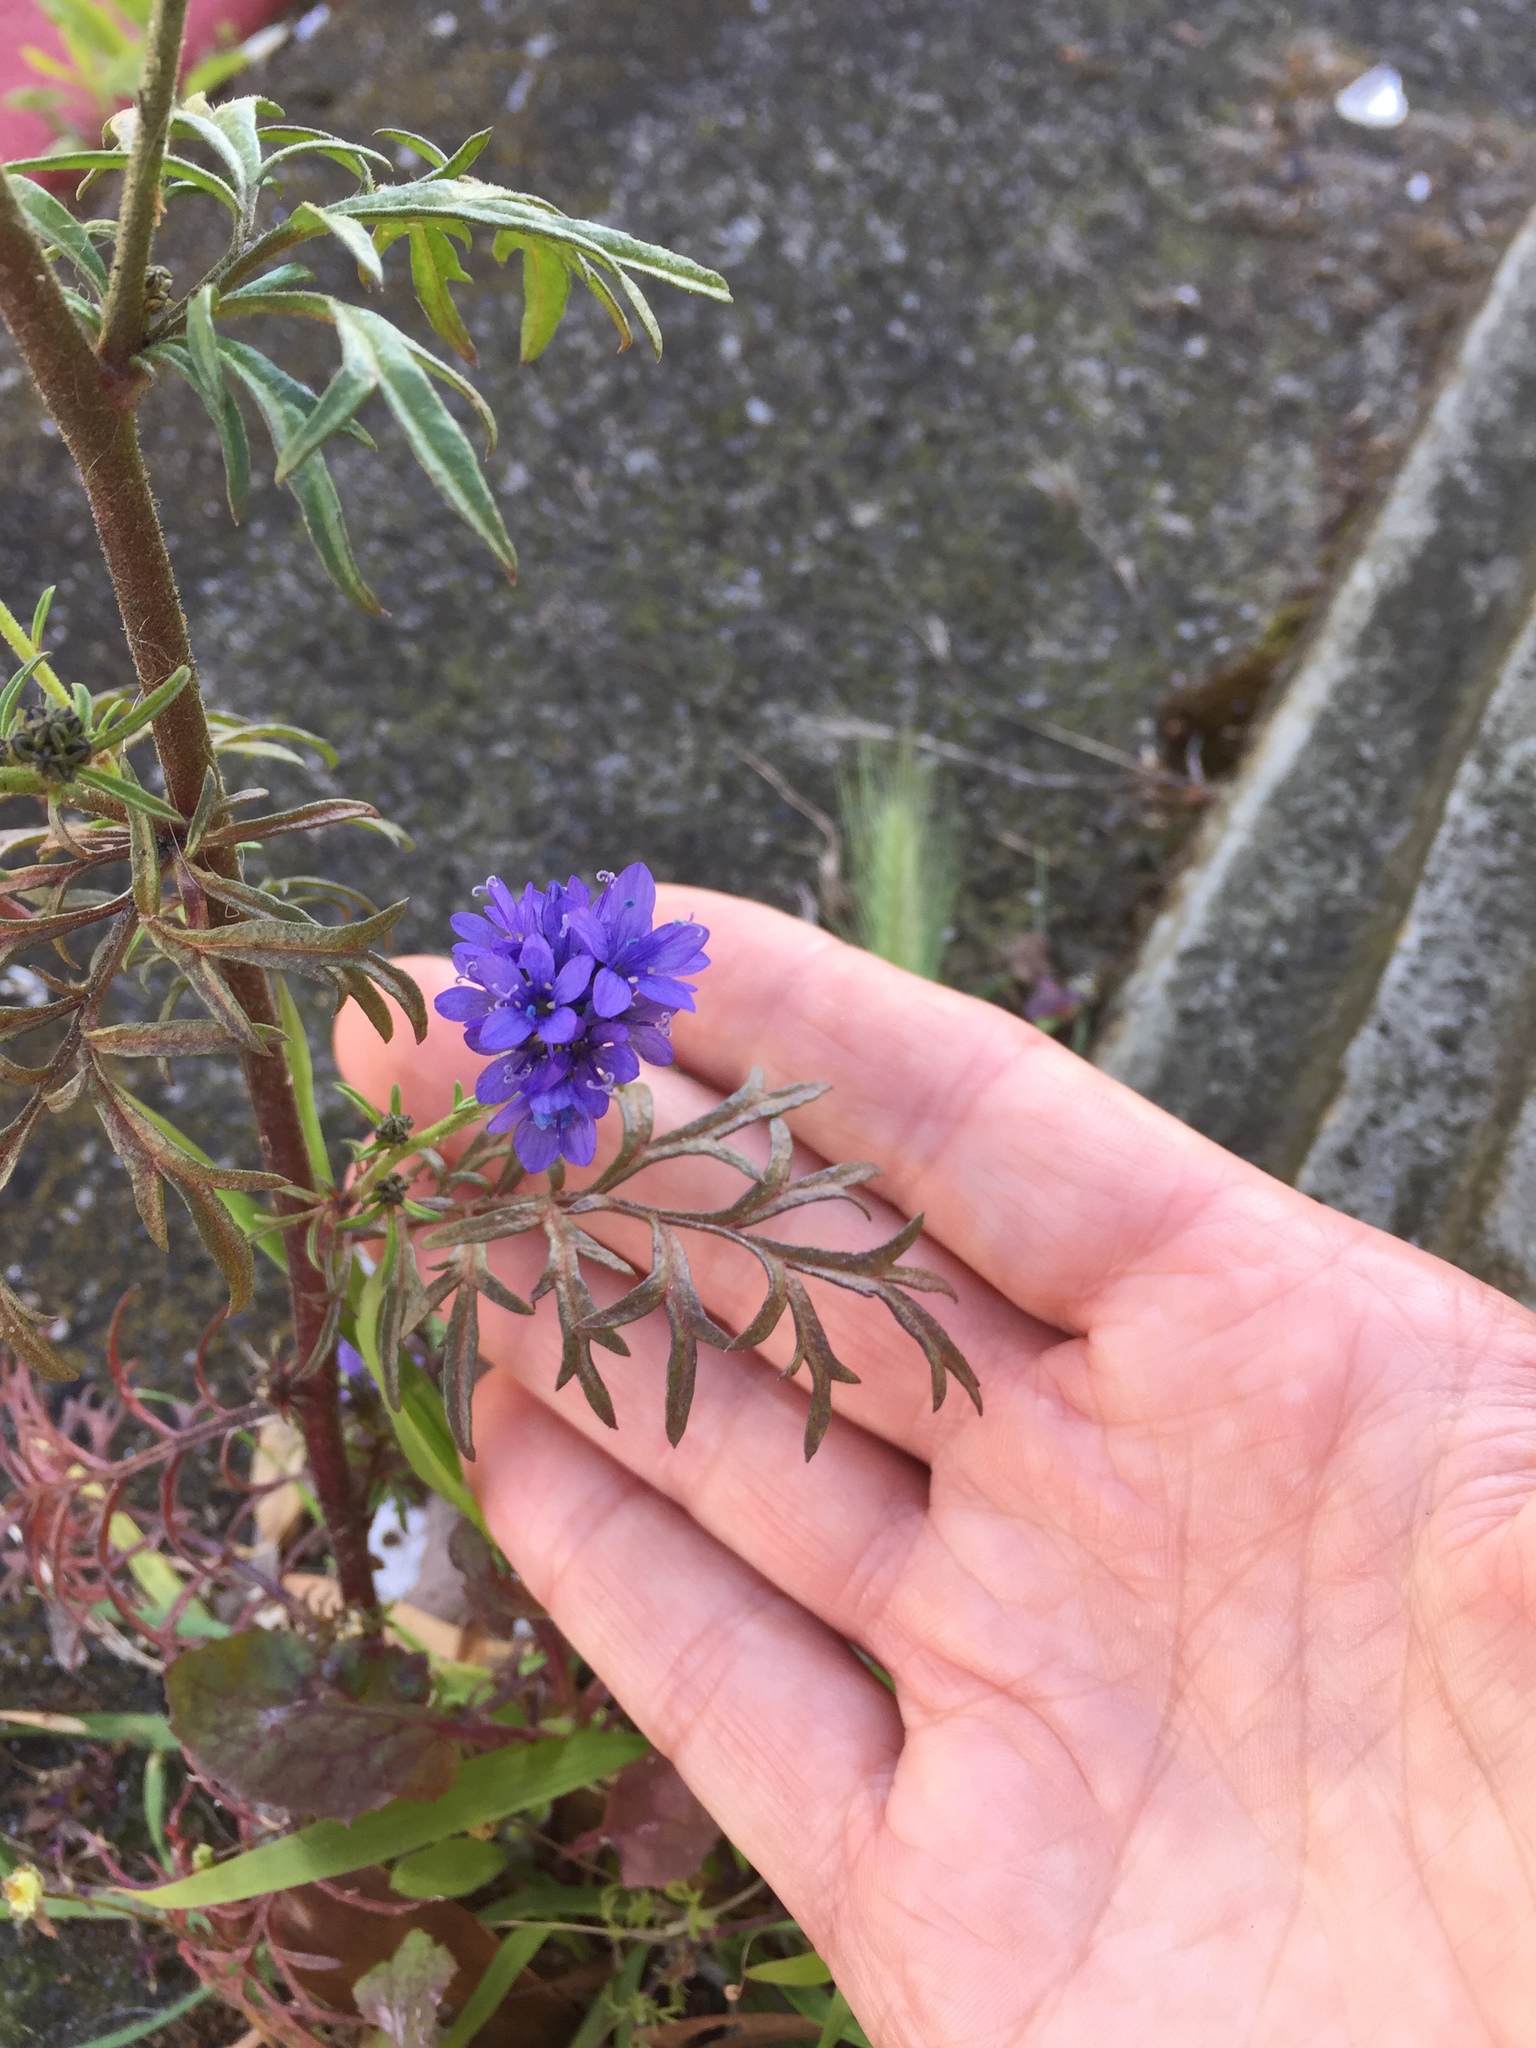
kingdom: Plantae
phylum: Tracheophyta
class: Magnoliopsida
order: Ericales
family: Polemoniaceae
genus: Gilia
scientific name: Gilia capitata
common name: Bluehead gilia
